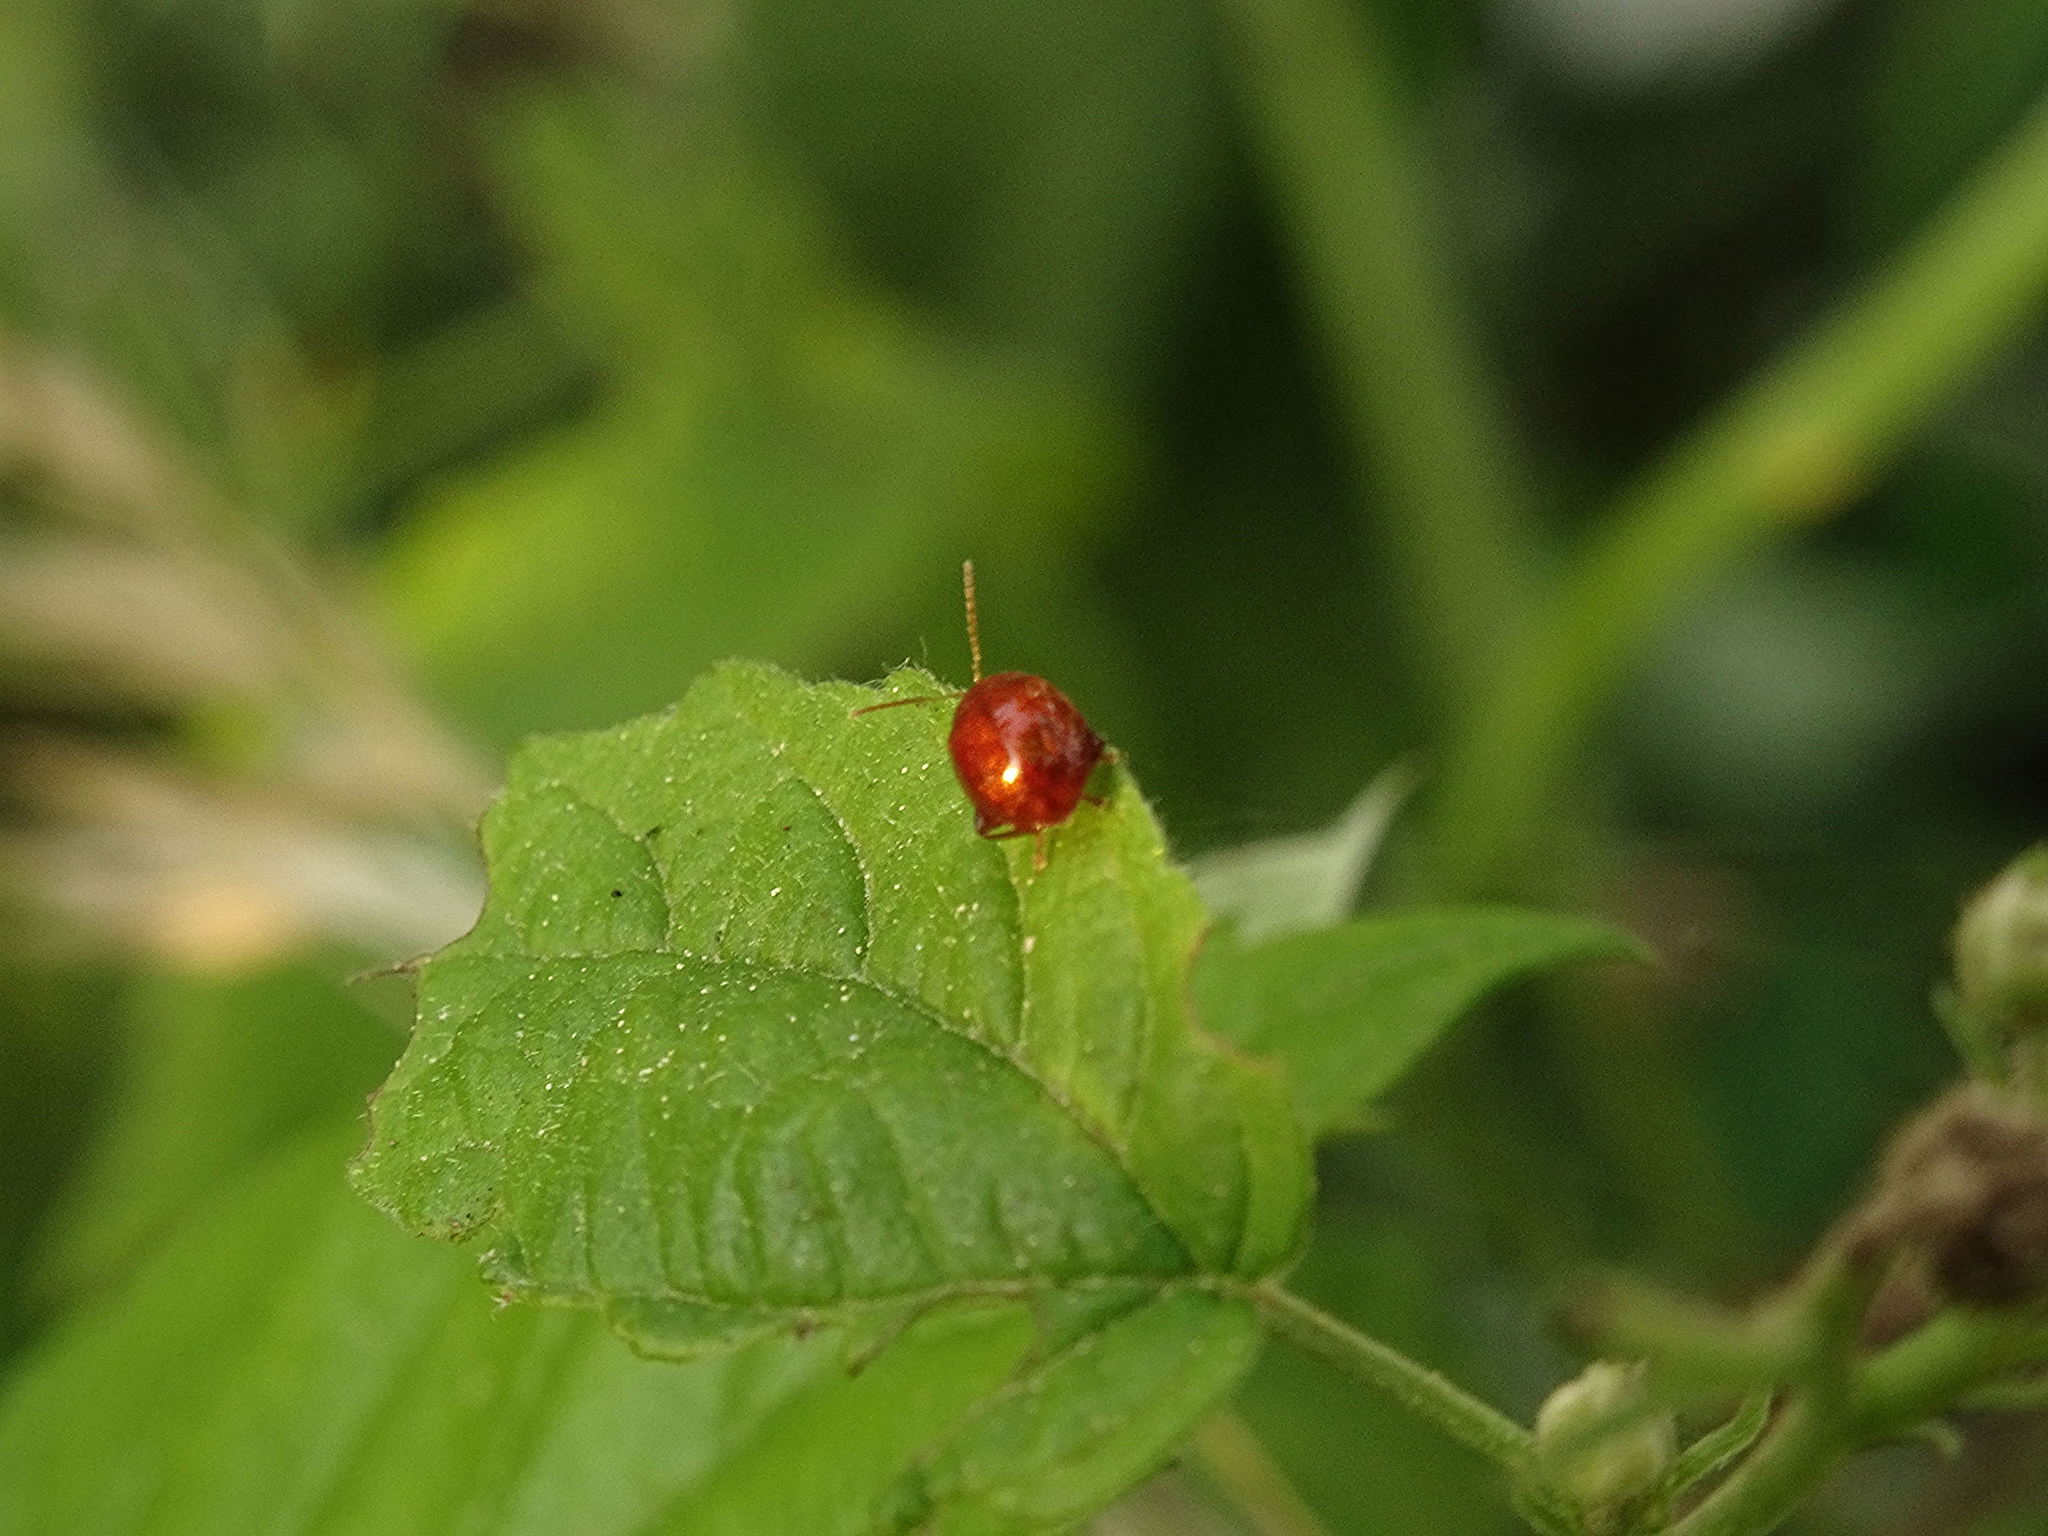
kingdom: Animalia
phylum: Arthropoda
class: Insecta
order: Coleoptera
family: Chrysomelidae
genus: Sphaeroderma
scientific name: Sphaeroderma rubi
